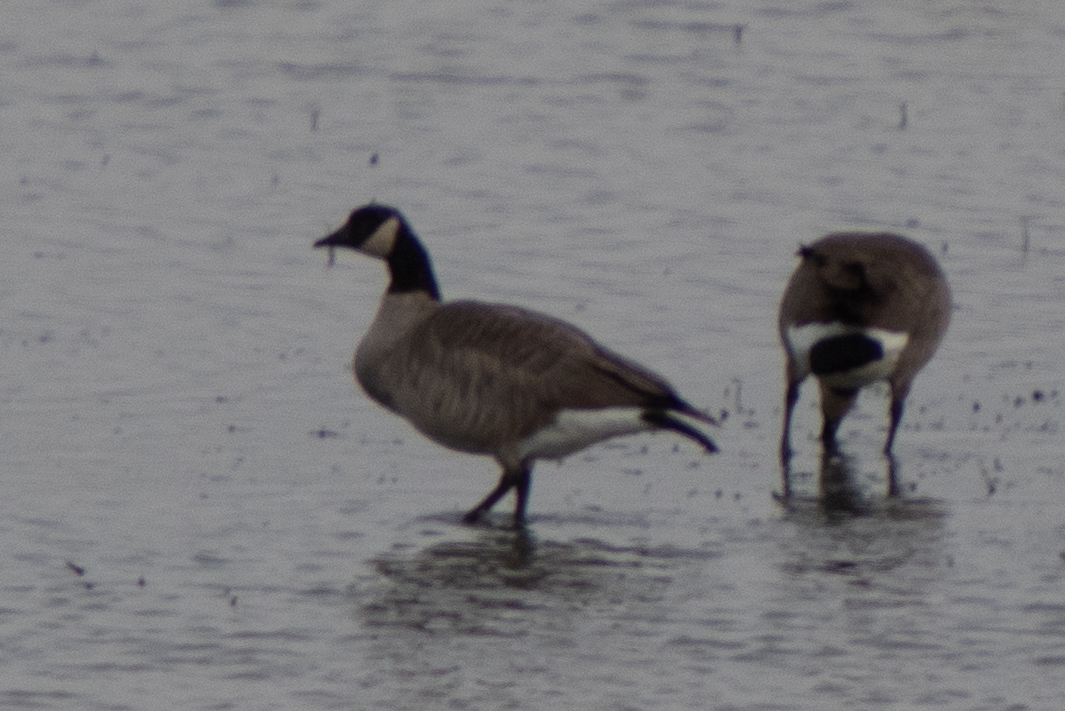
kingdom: Animalia
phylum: Chordata
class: Aves
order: Anseriformes
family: Anatidae
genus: Branta
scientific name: Branta canadensis
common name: Canada goose
